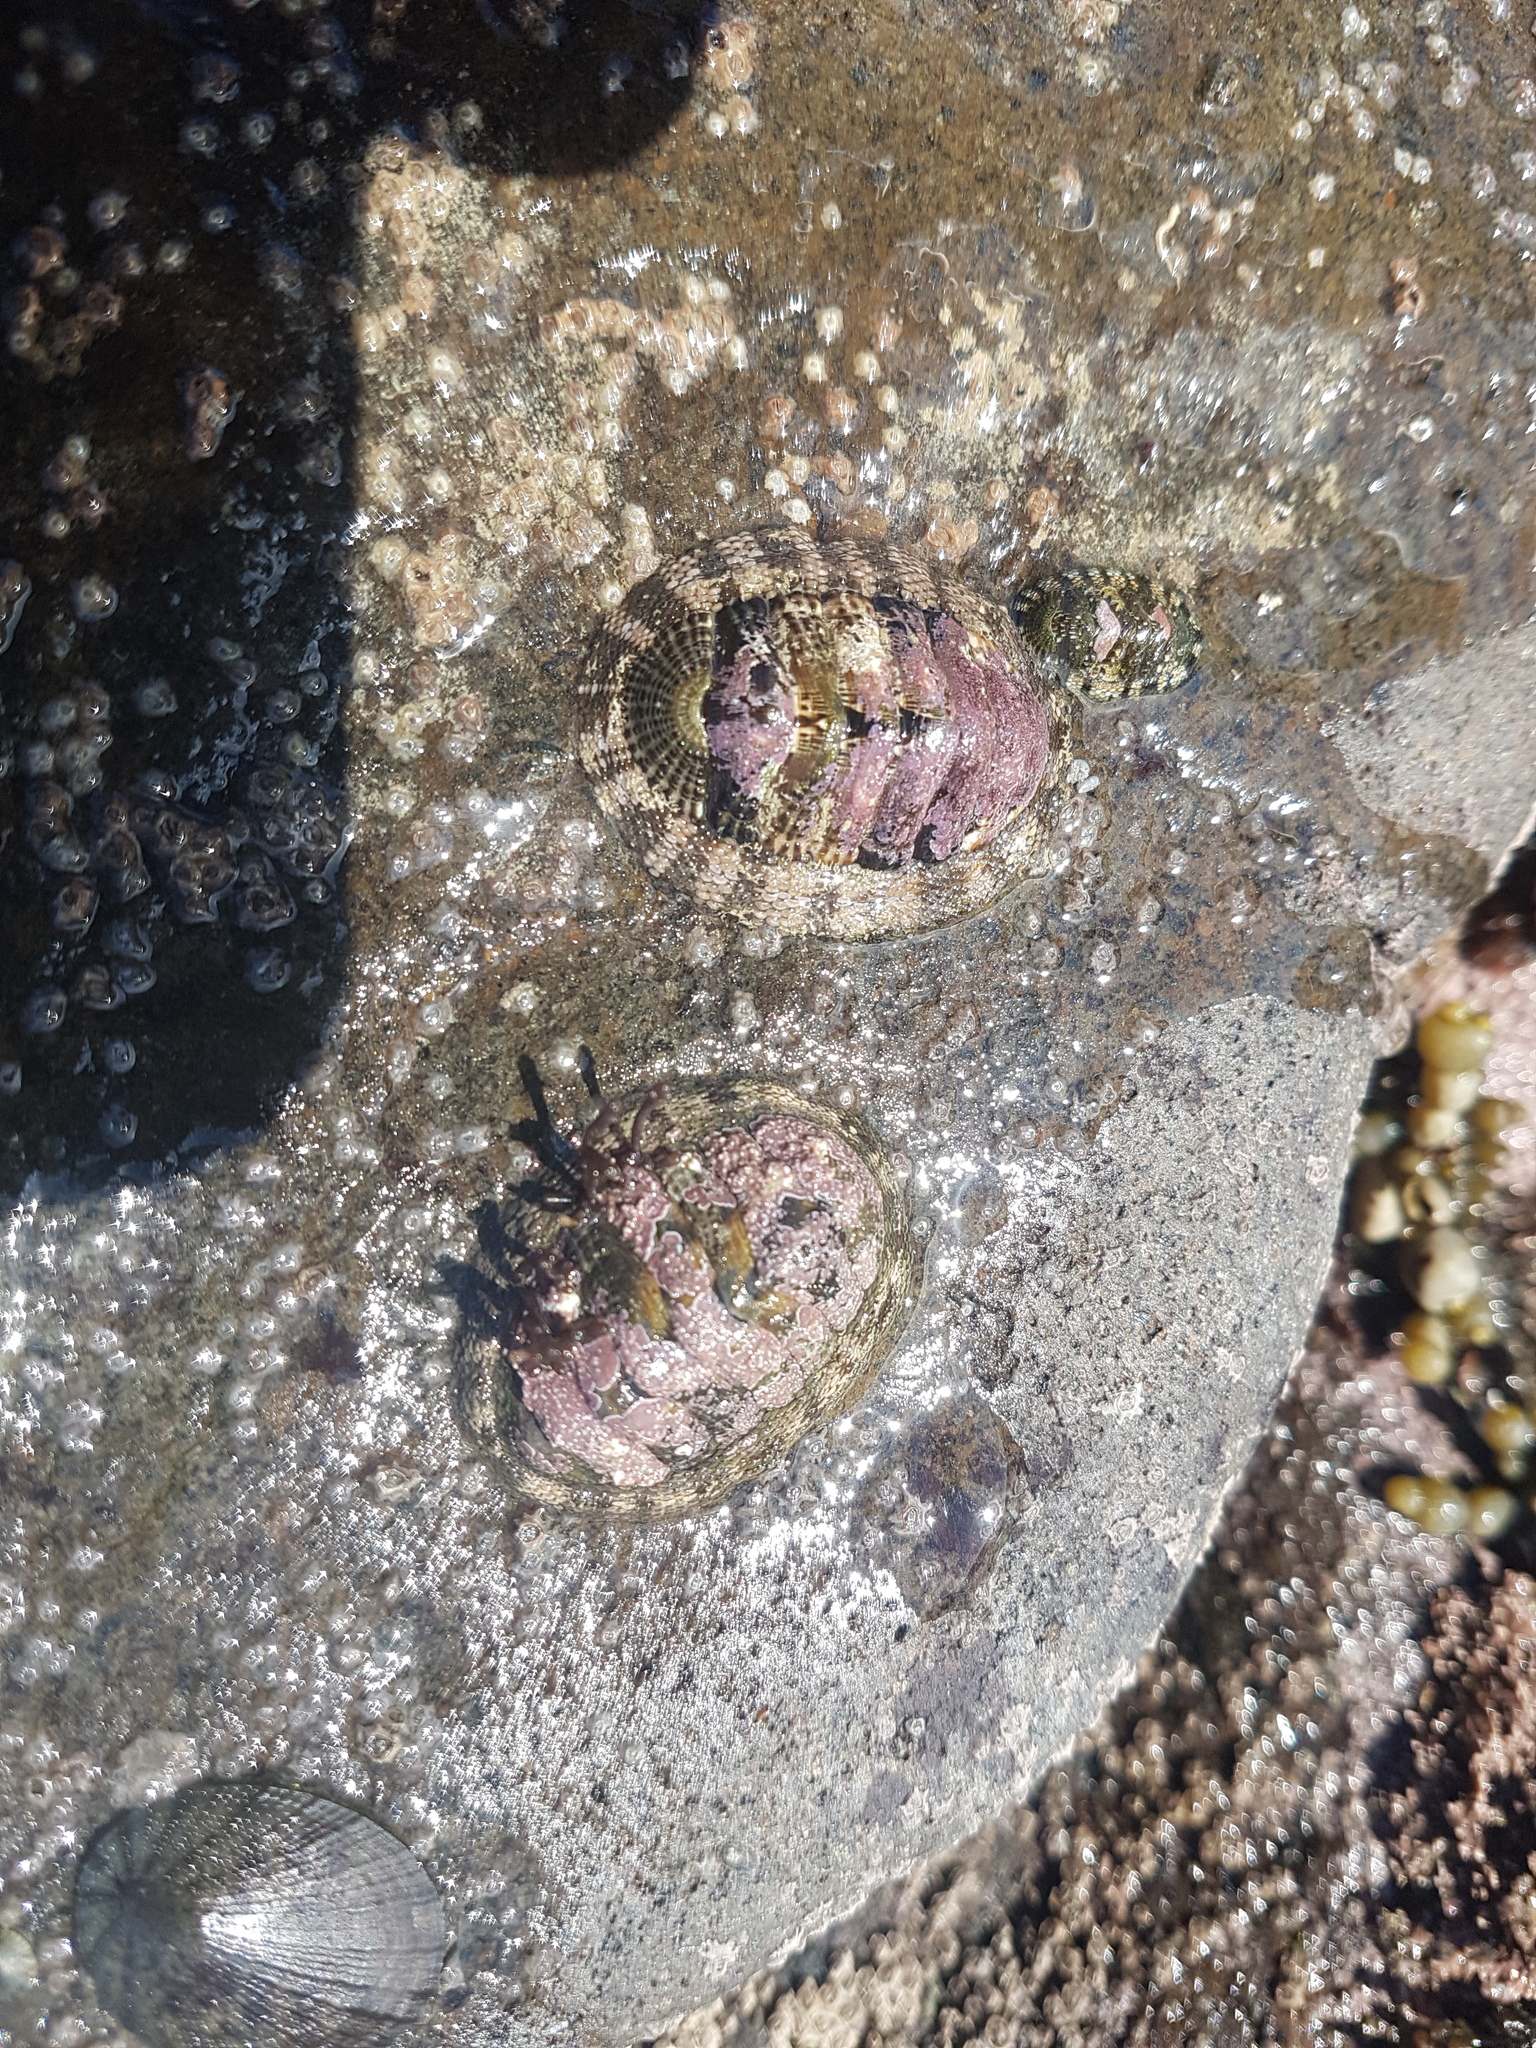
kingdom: Animalia
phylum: Mollusca
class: Polyplacophora
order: Chitonida
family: Chitonidae
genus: Sypharochiton
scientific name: Sypharochiton pelliserpentis
